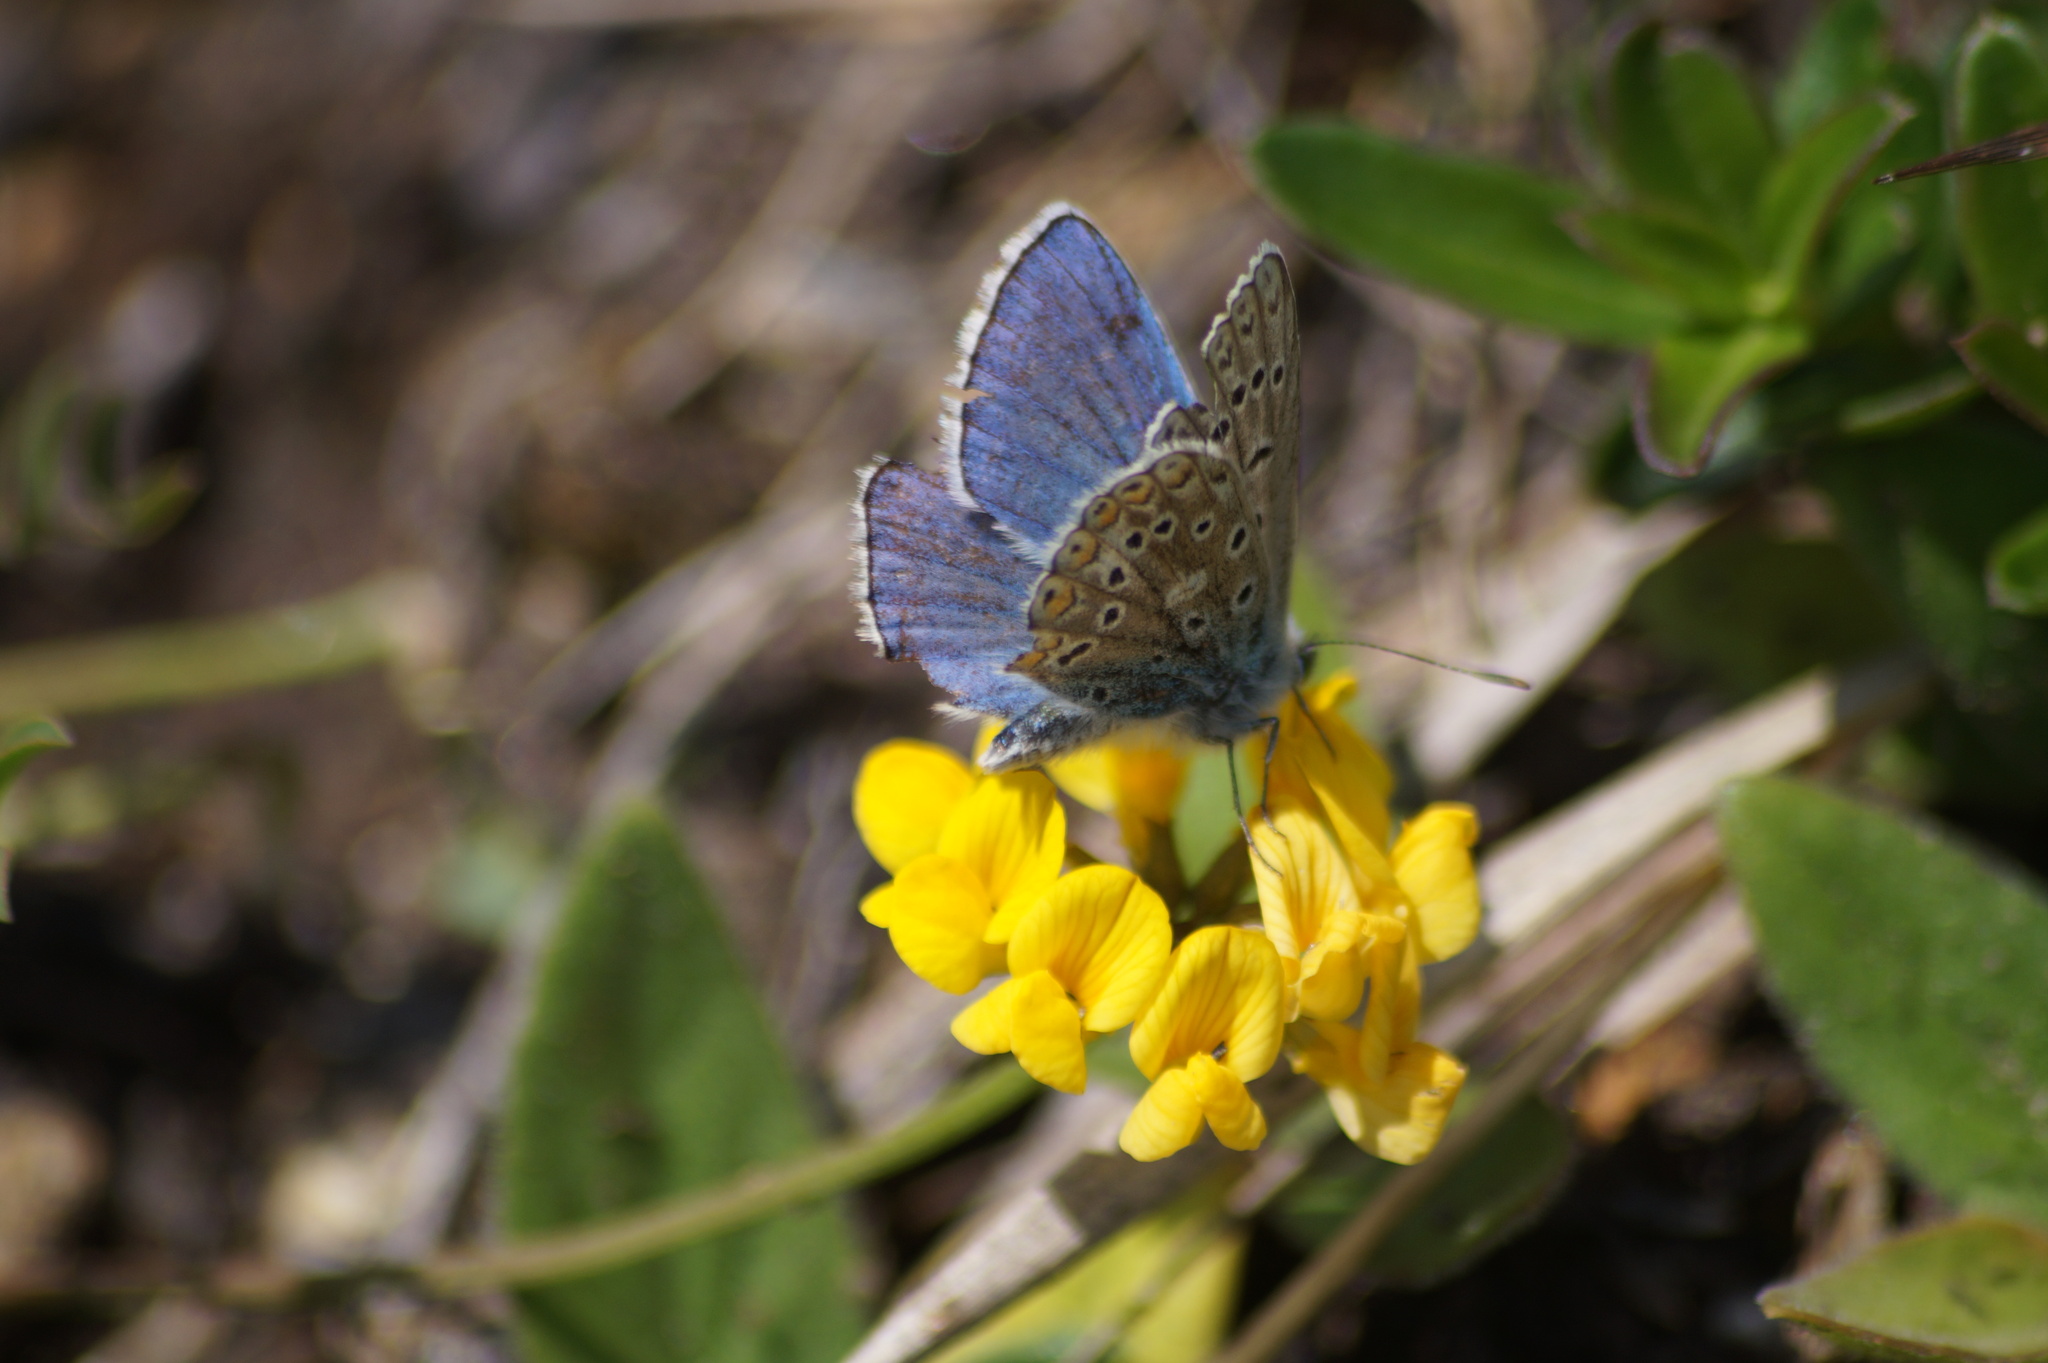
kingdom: Animalia
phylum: Arthropoda
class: Insecta
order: Lepidoptera
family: Lycaenidae
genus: Polyommatus
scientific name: Polyommatus icarus
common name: Common blue
